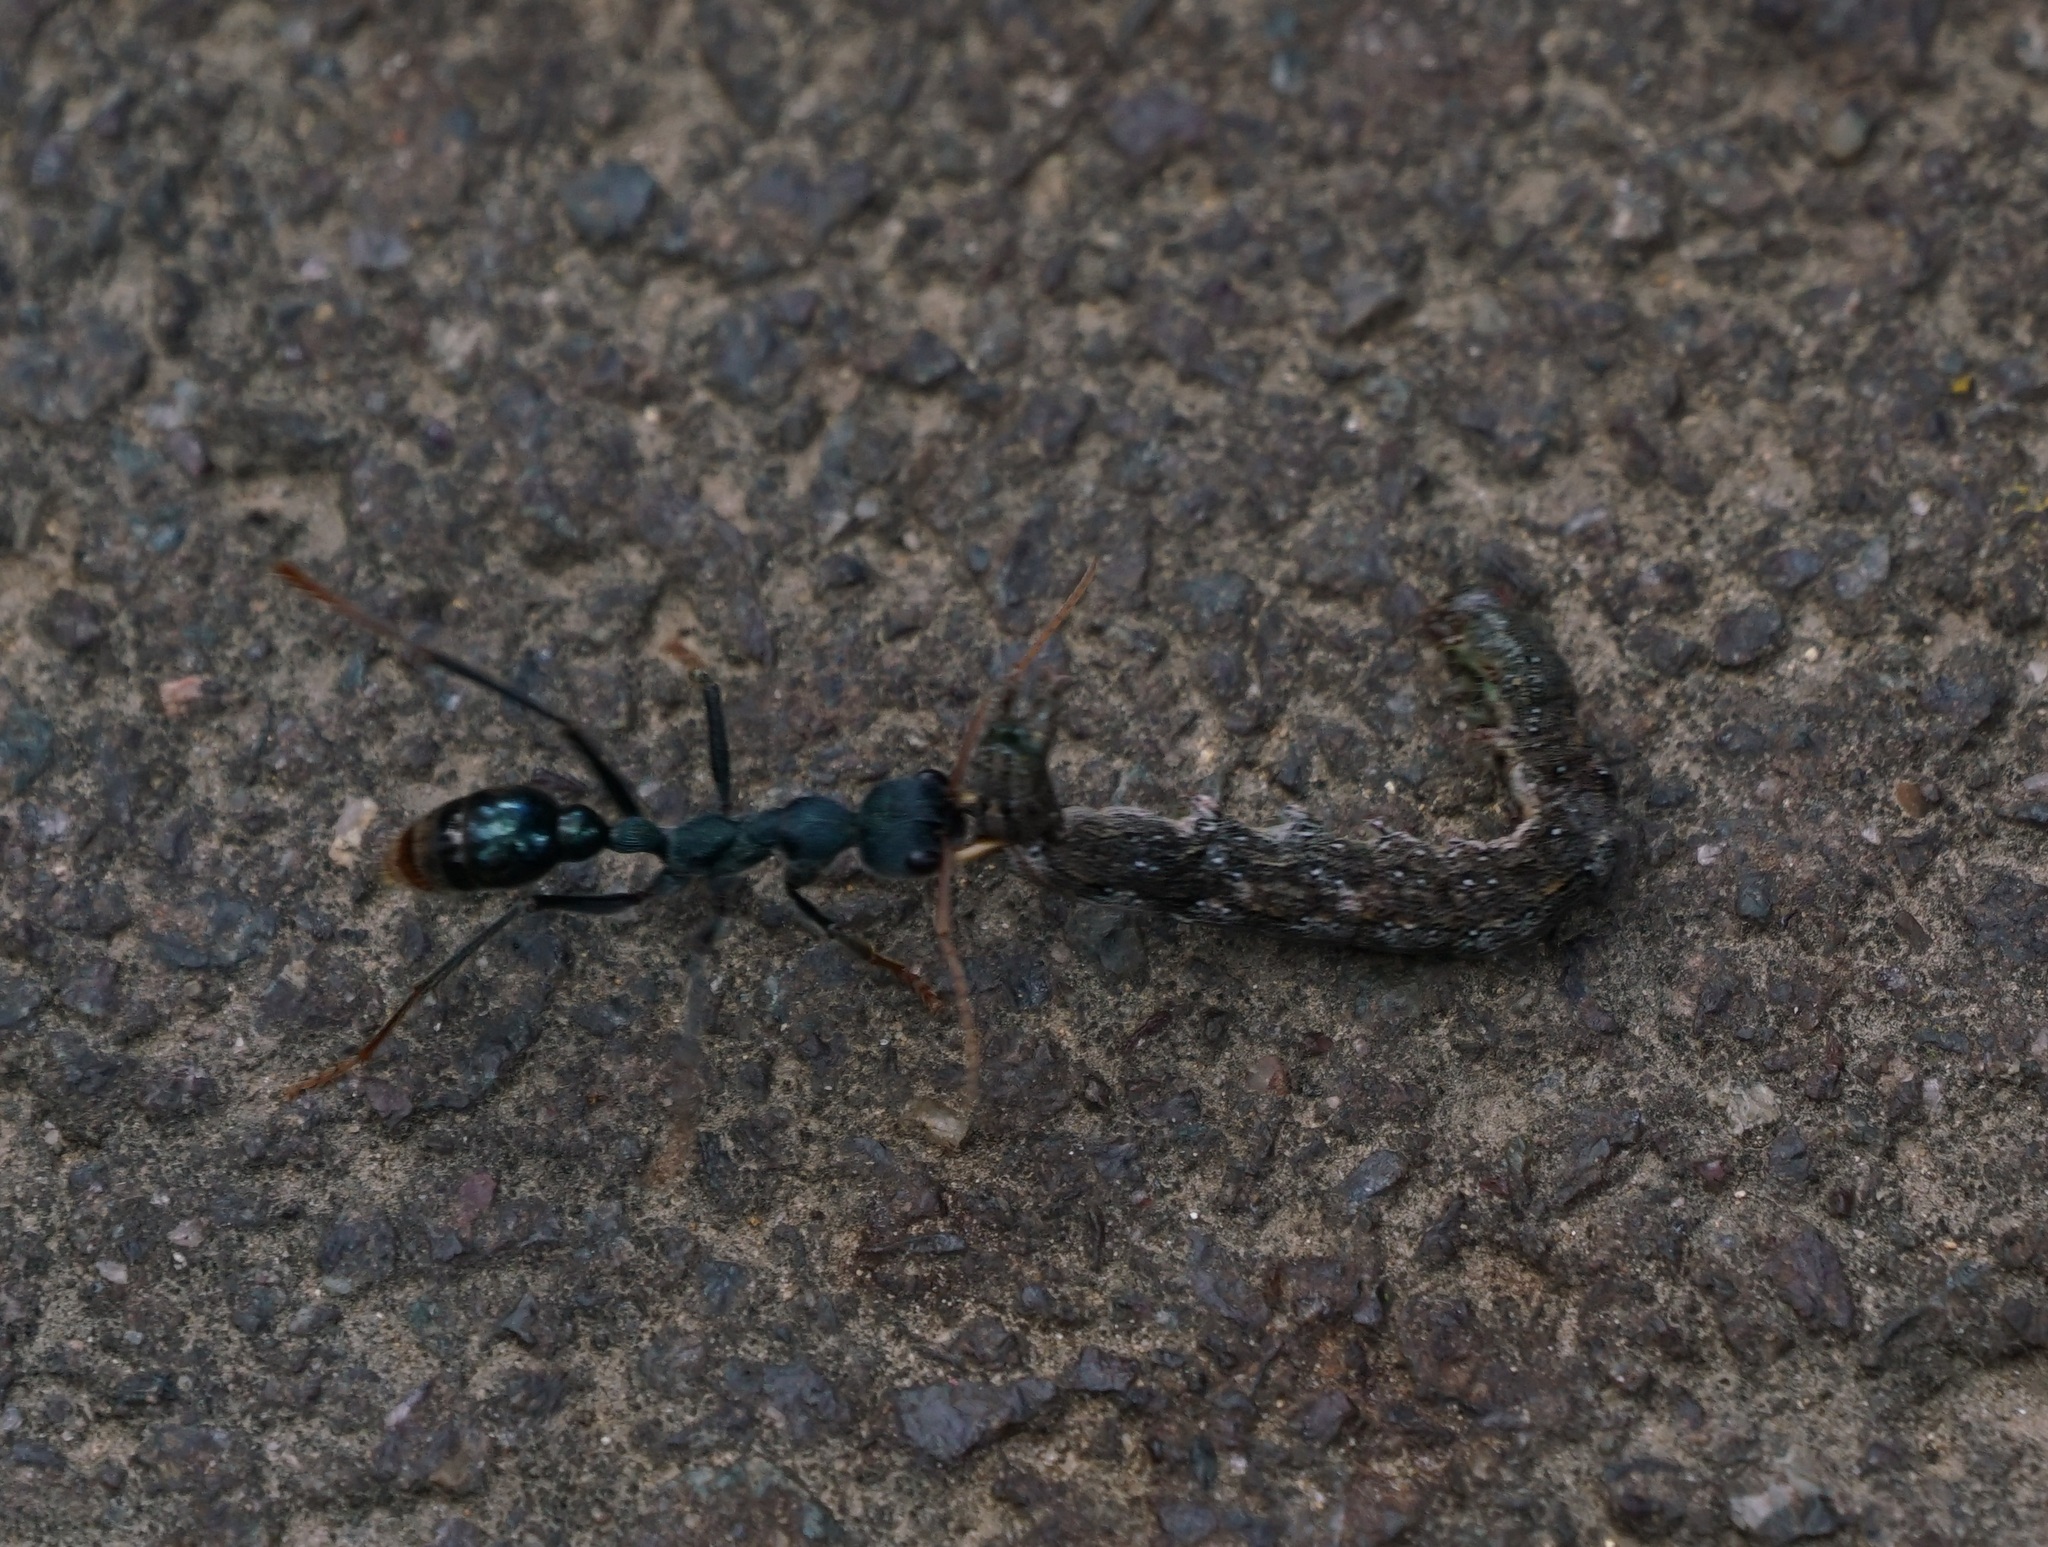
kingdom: Animalia
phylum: Arthropoda
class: Insecta
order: Hymenoptera
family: Formicidae
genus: Myrmecia
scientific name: Myrmecia tarsata
